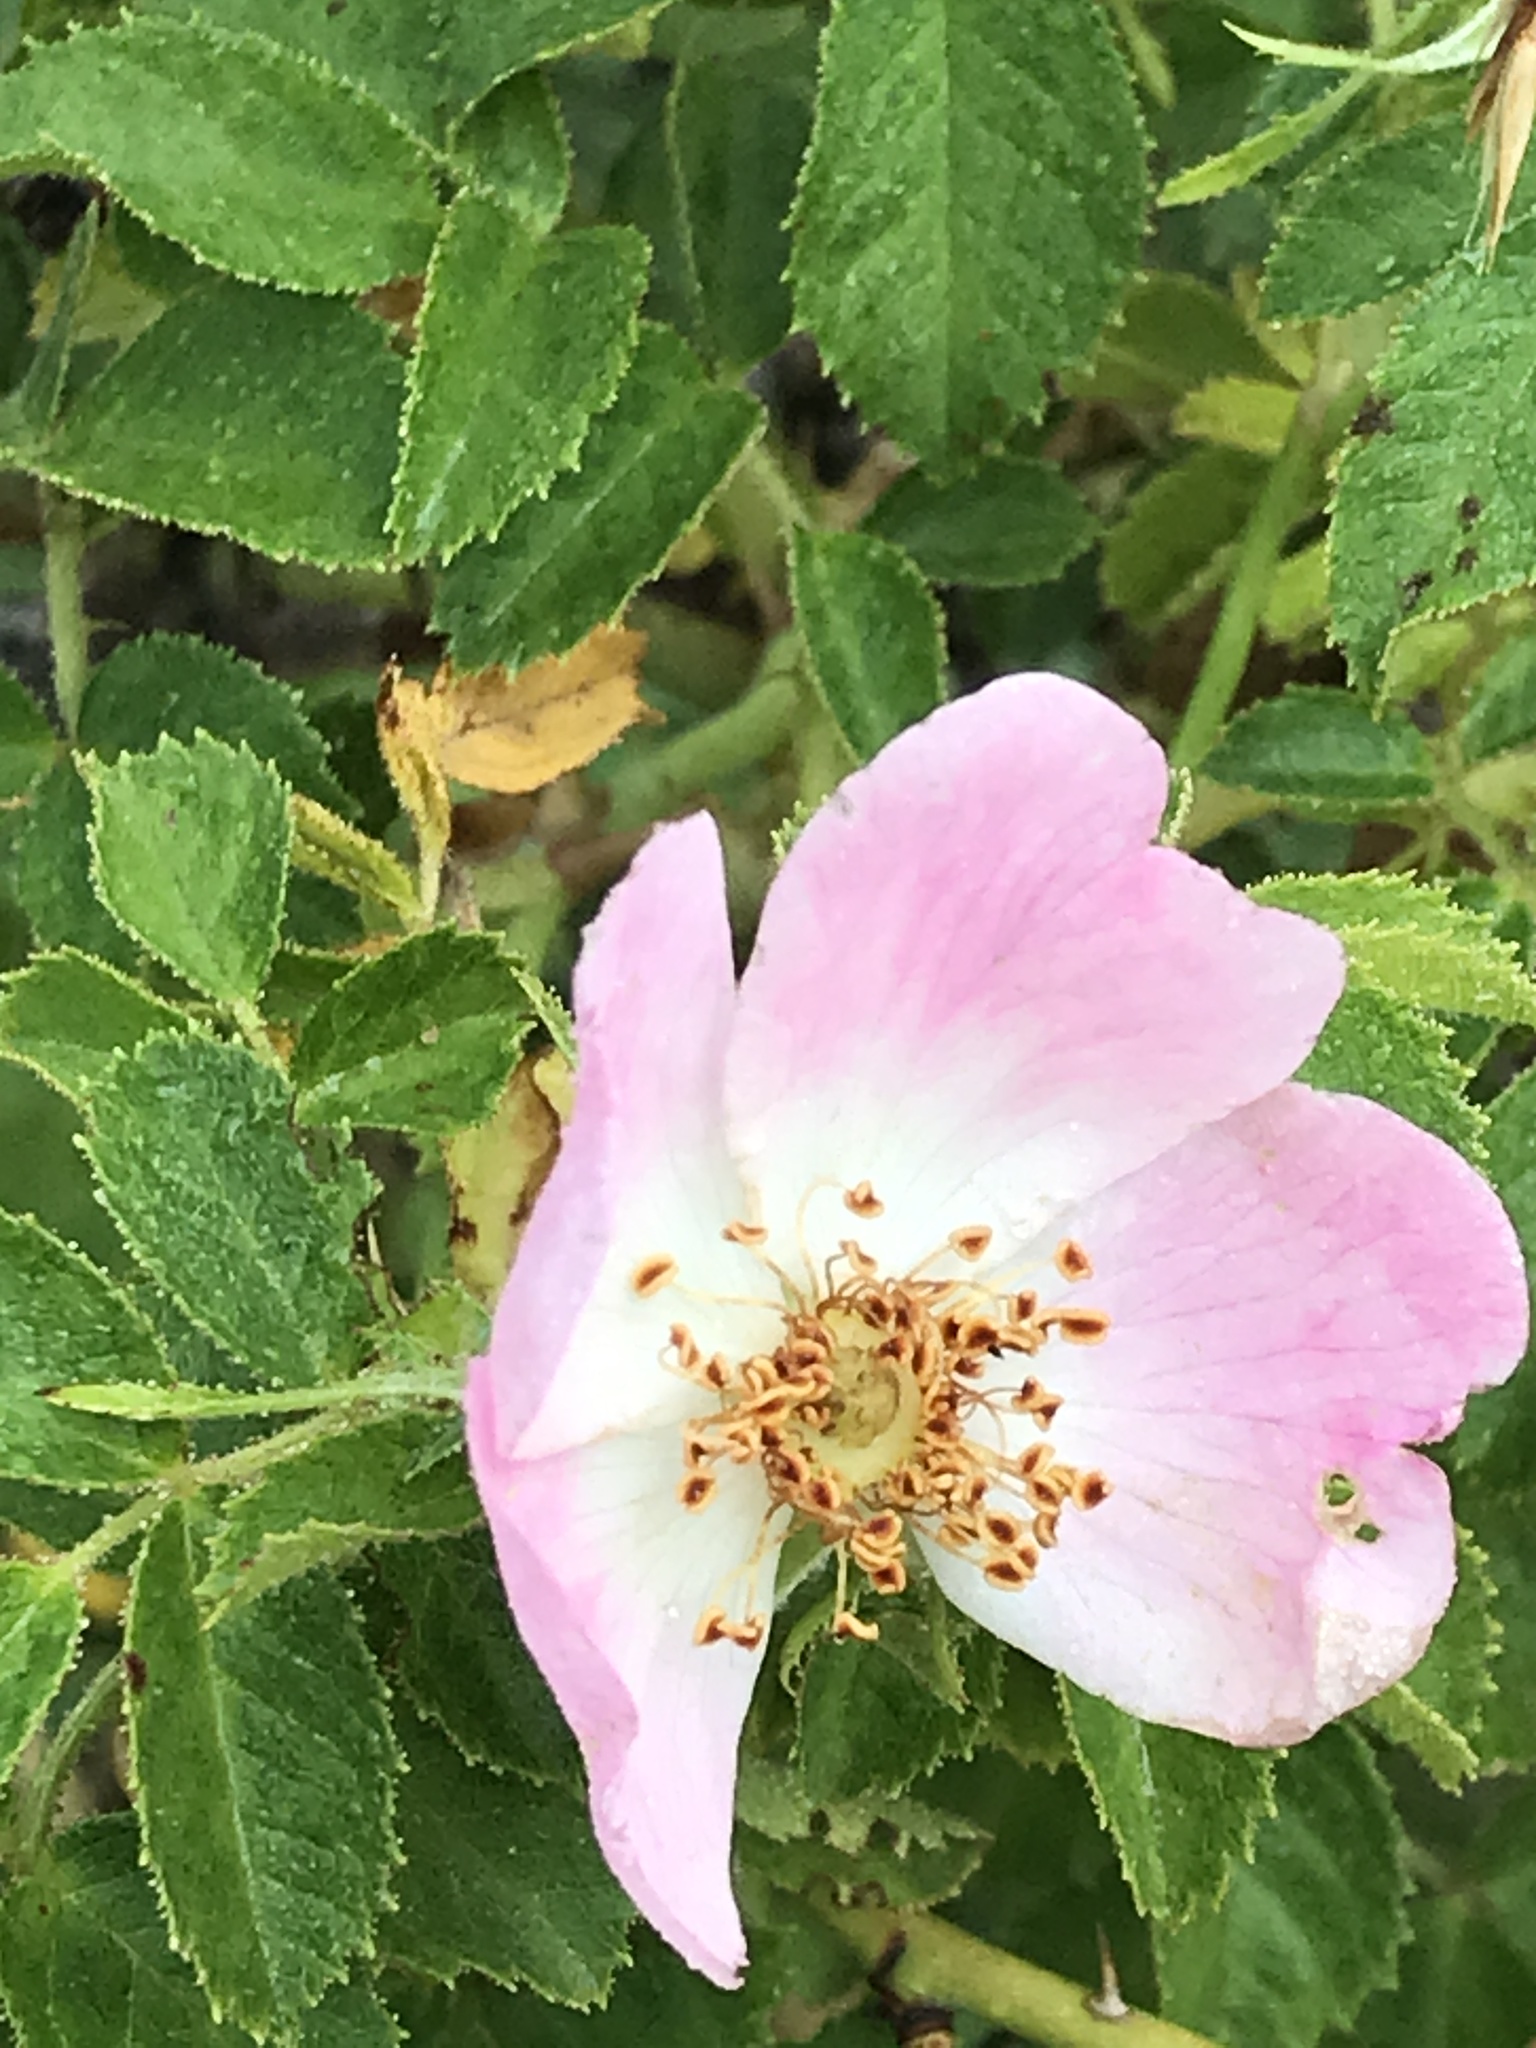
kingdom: Plantae
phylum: Tracheophyta
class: Magnoliopsida
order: Rosales
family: Rosaceae
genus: Rosa
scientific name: Rosa rubiginosa
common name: Sweet-briar
